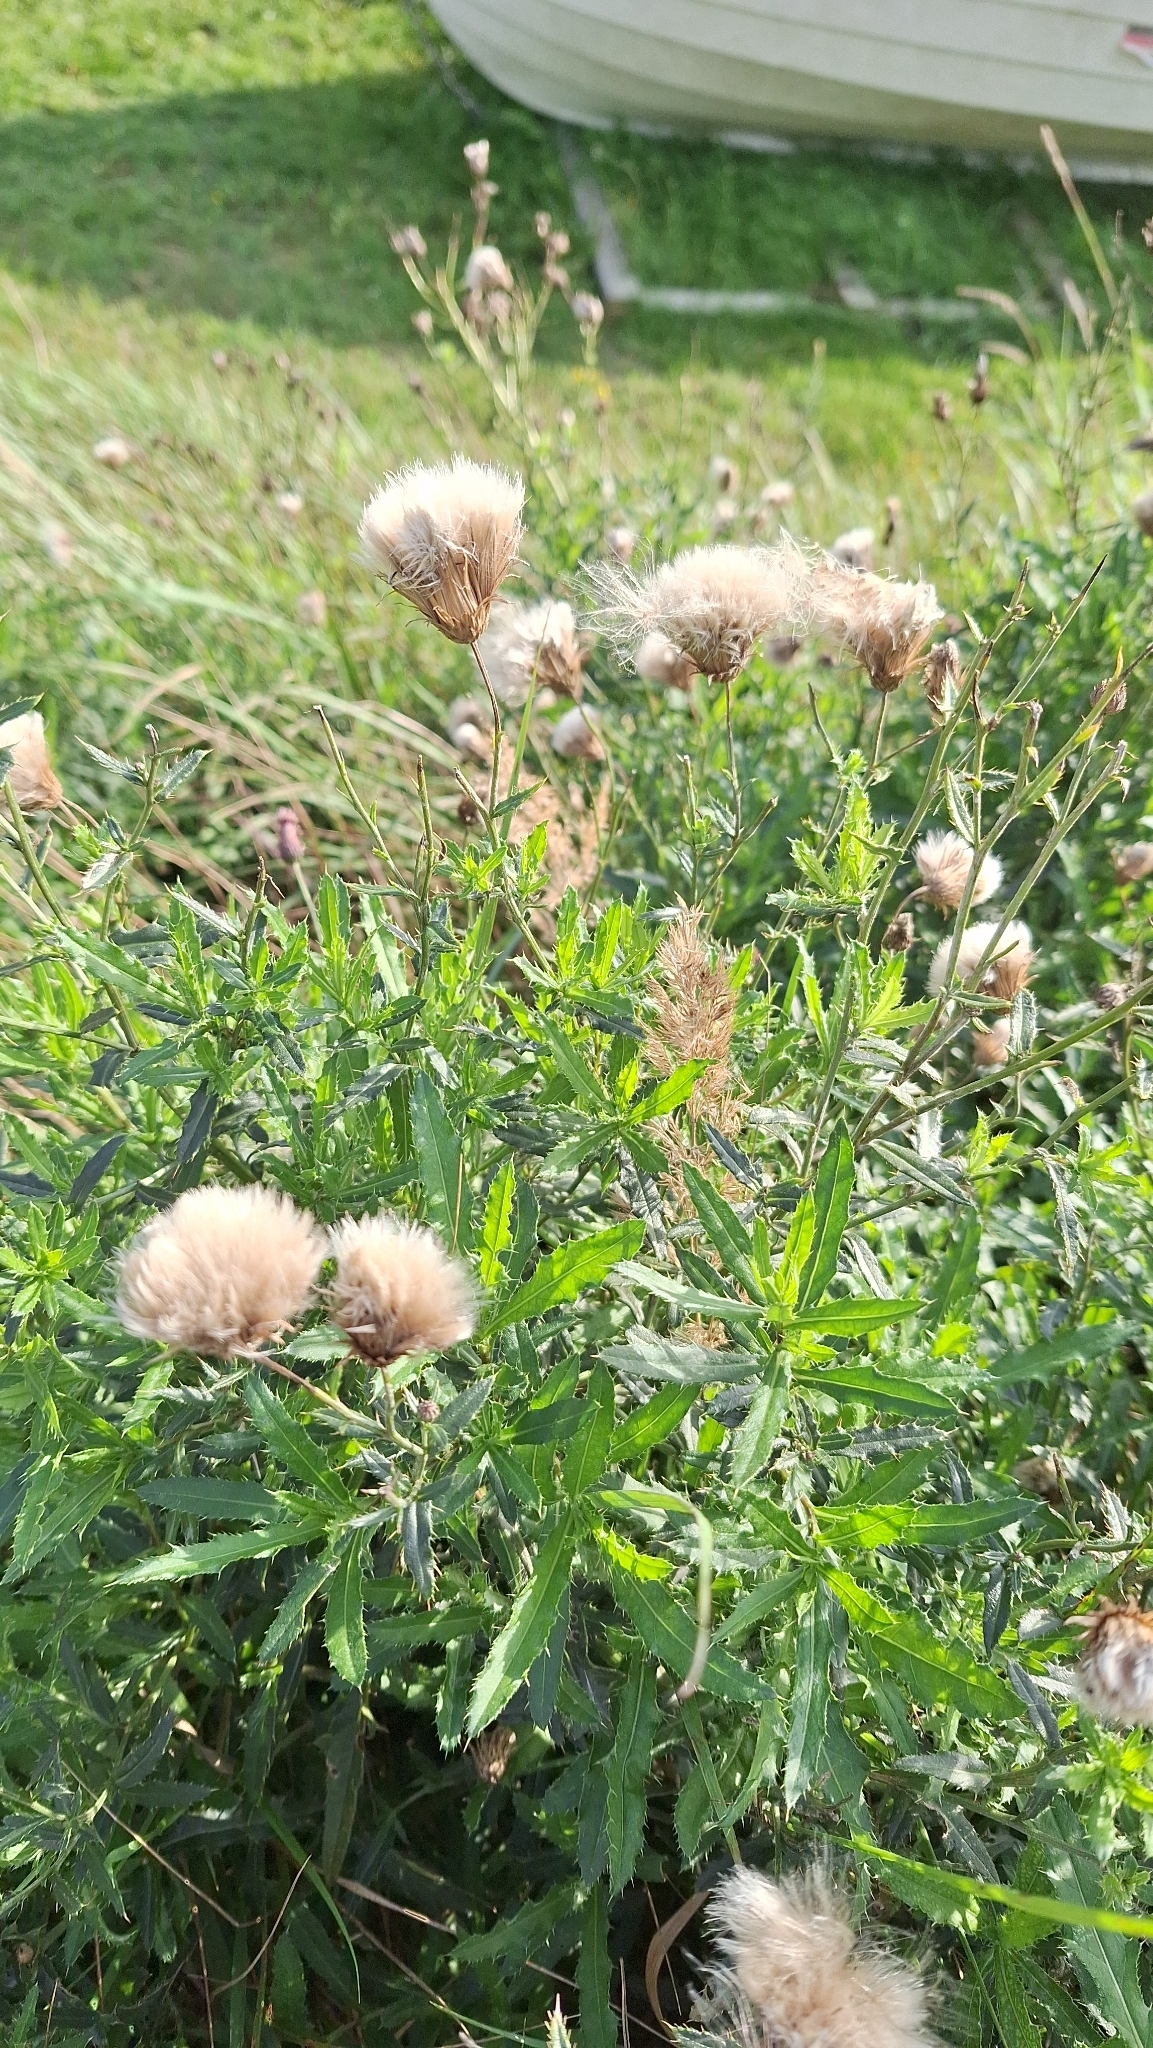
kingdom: Plantae
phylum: Tracheophyta
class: Magnoliopsida
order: Asterales
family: Asteraceae
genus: Cirsium
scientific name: Cirsium arvense
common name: Creeping thistle
